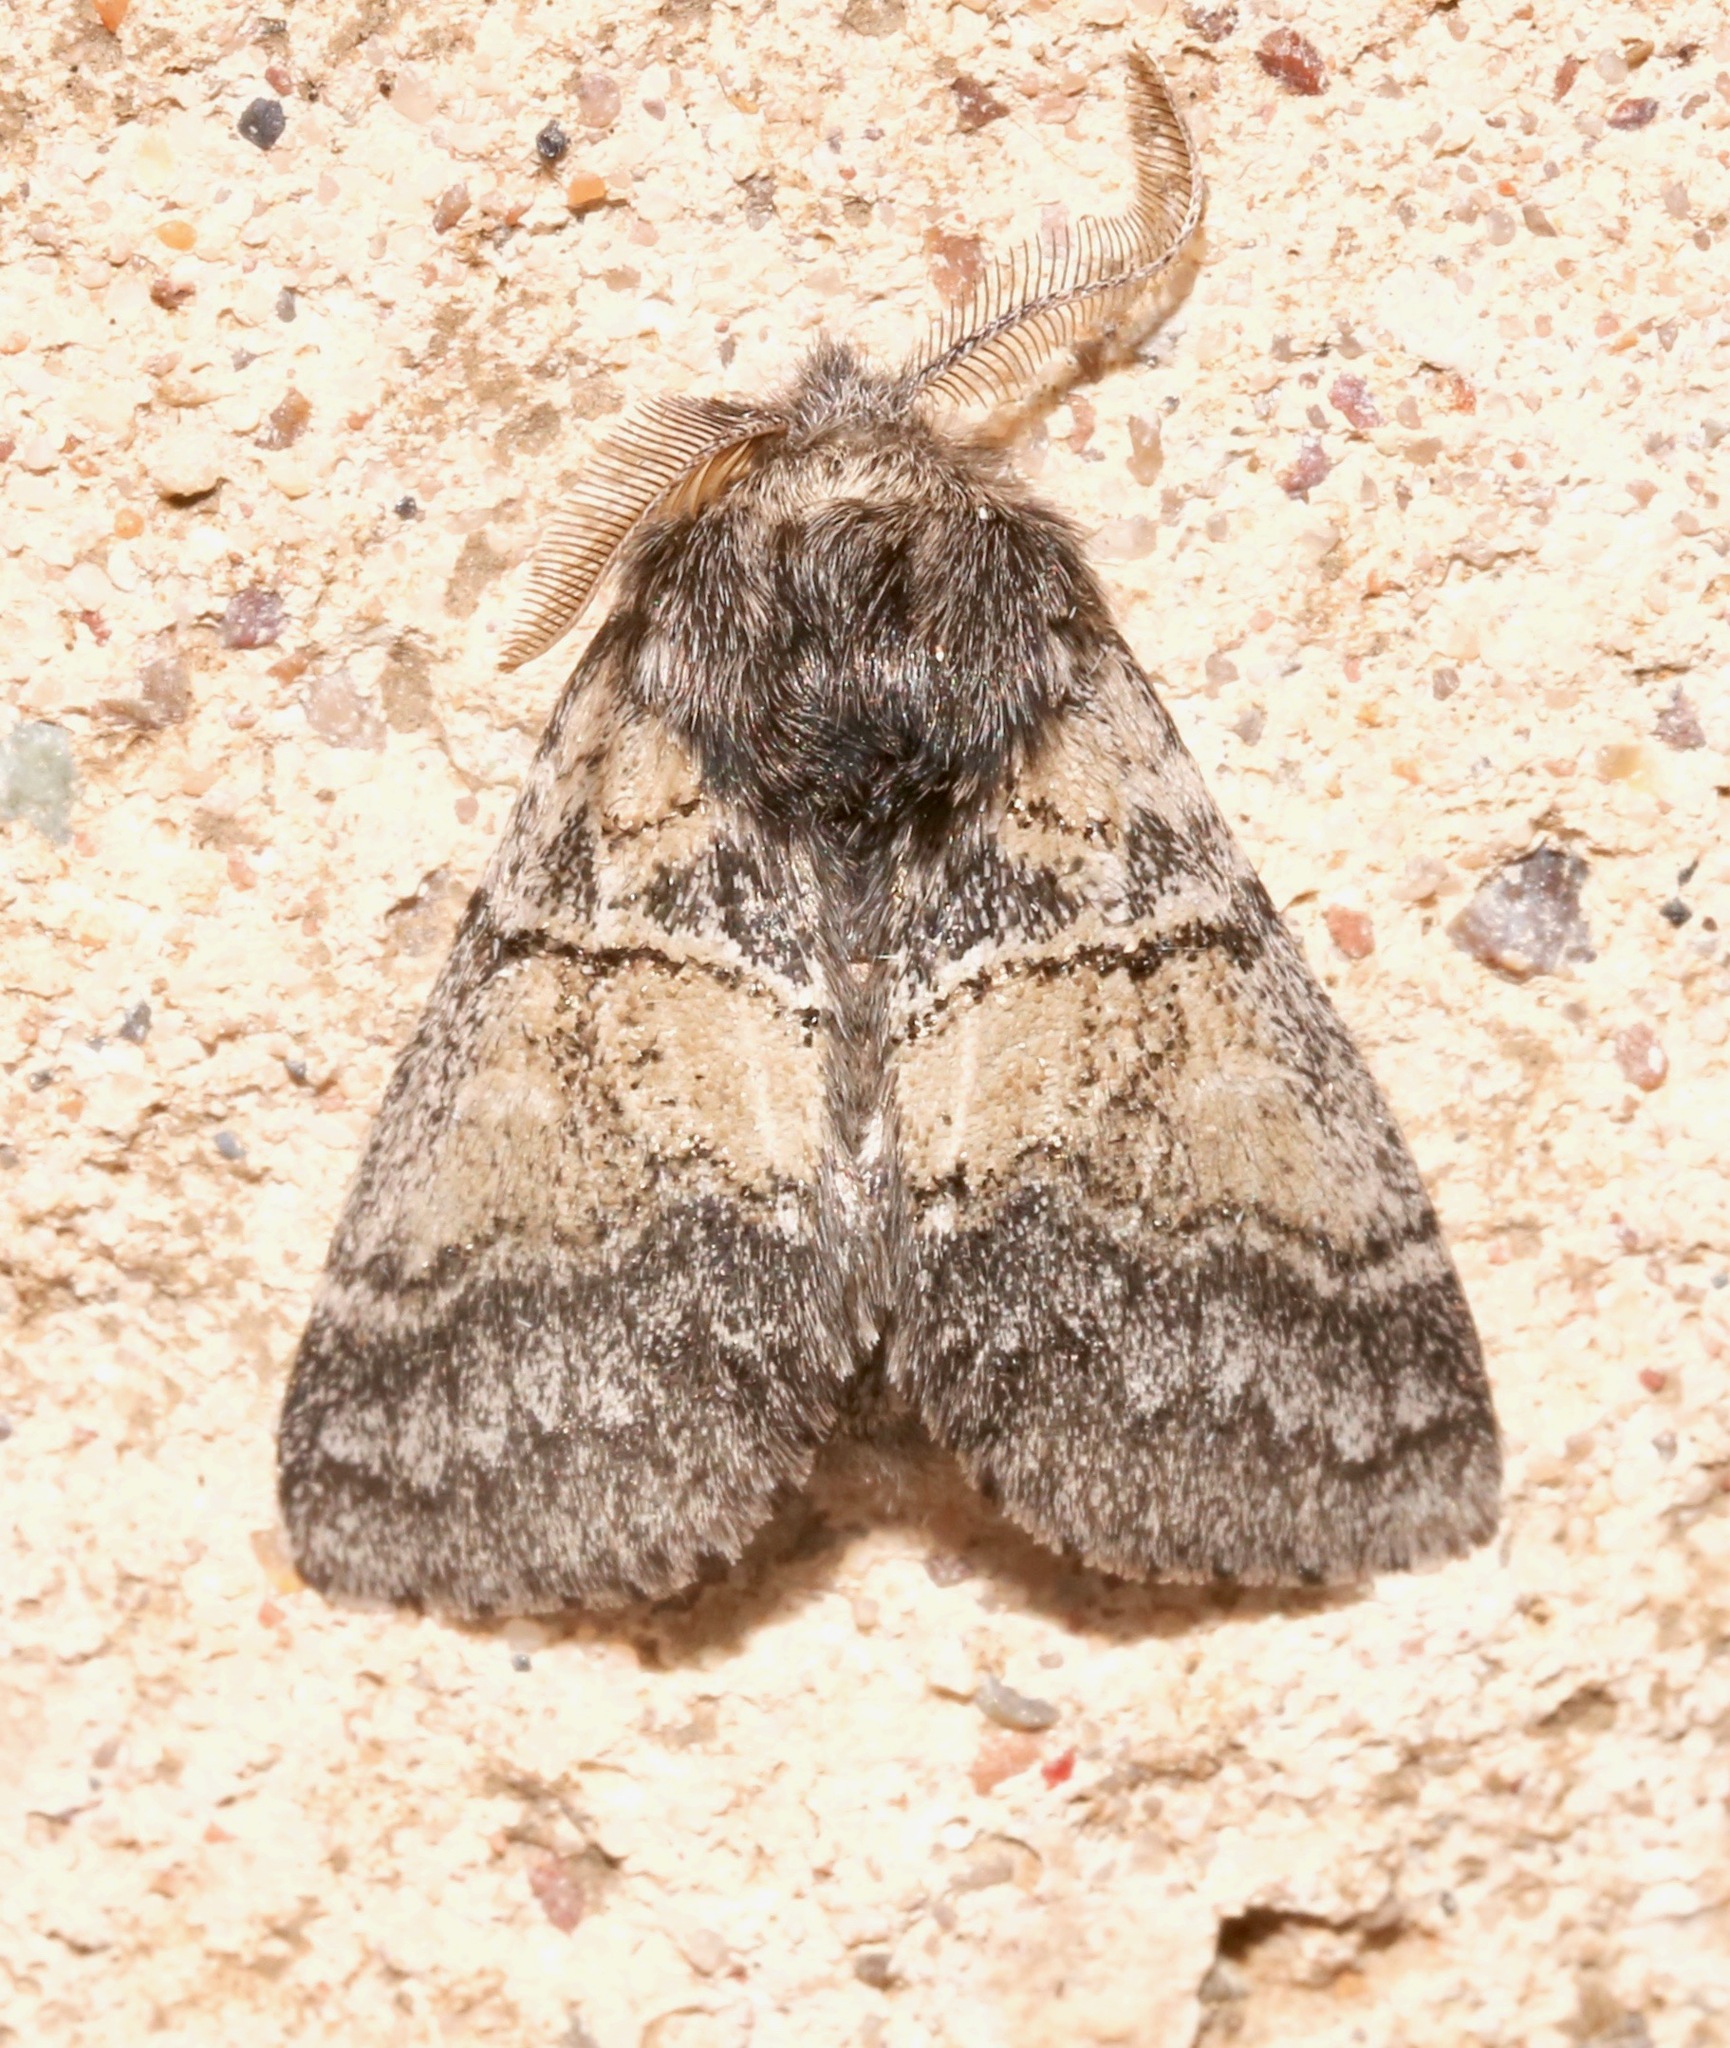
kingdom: Animalia
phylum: Arthropoda
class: Insecta
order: Lepidoptera
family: Notodontidae
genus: Gluphisia
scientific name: Gluphisia septentrionis
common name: Common gluphisia
